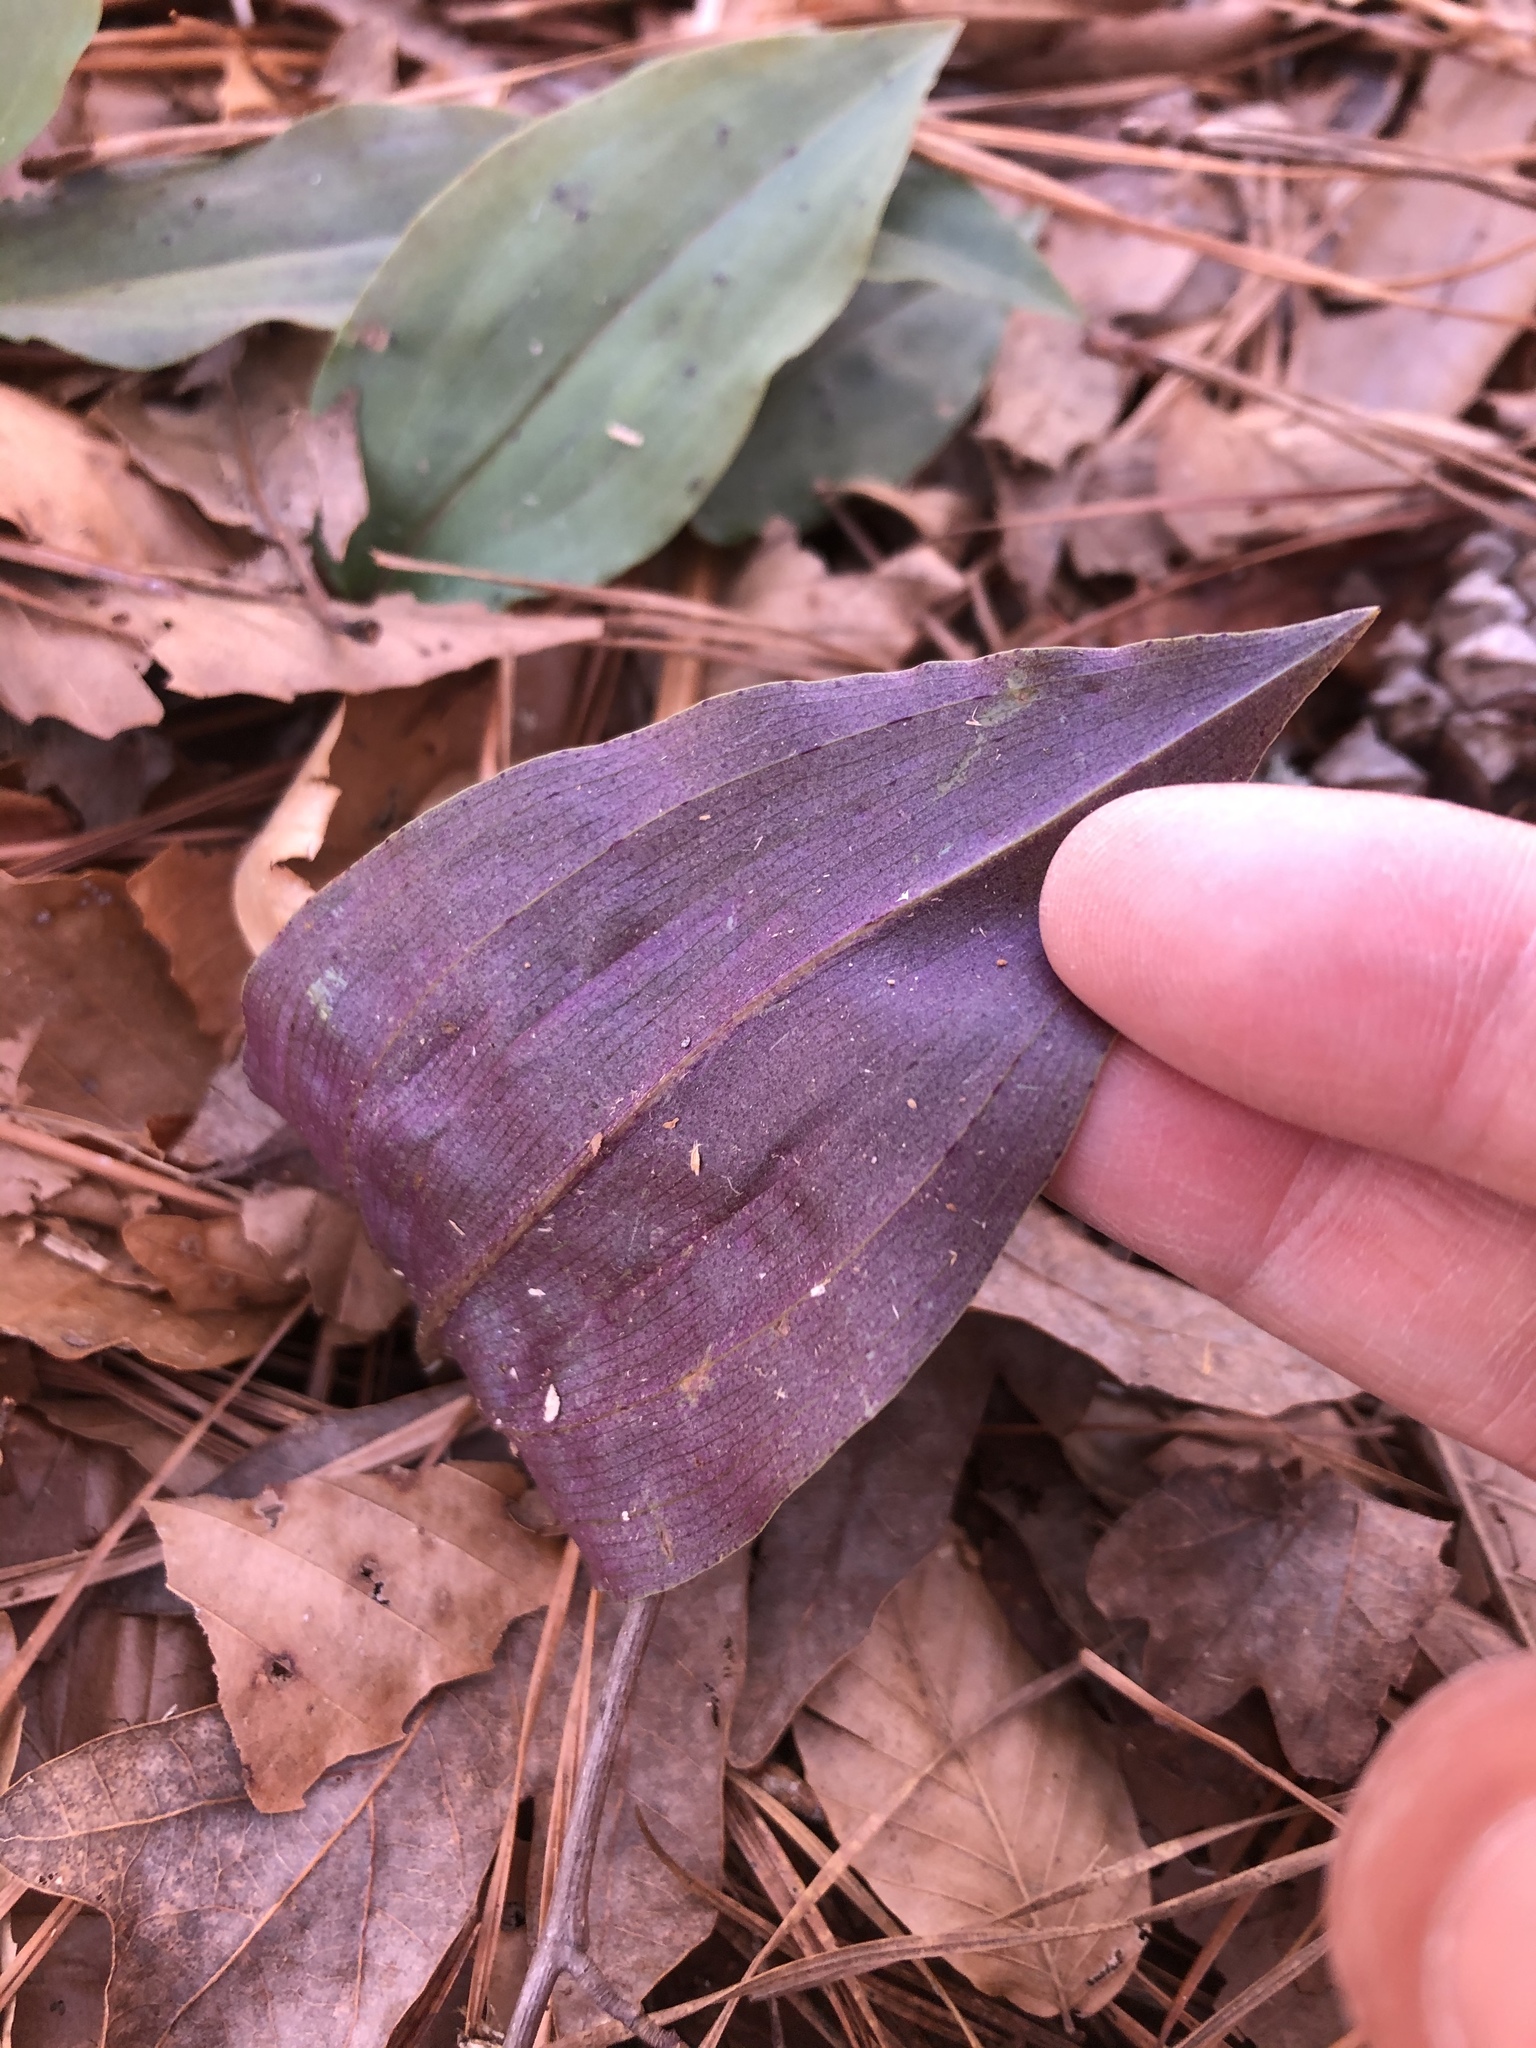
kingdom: Plantae
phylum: Tracheophyta
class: Liliopsida
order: Asparagales
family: Orchidaceae
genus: Tipularia
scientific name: Tipularia discolor
